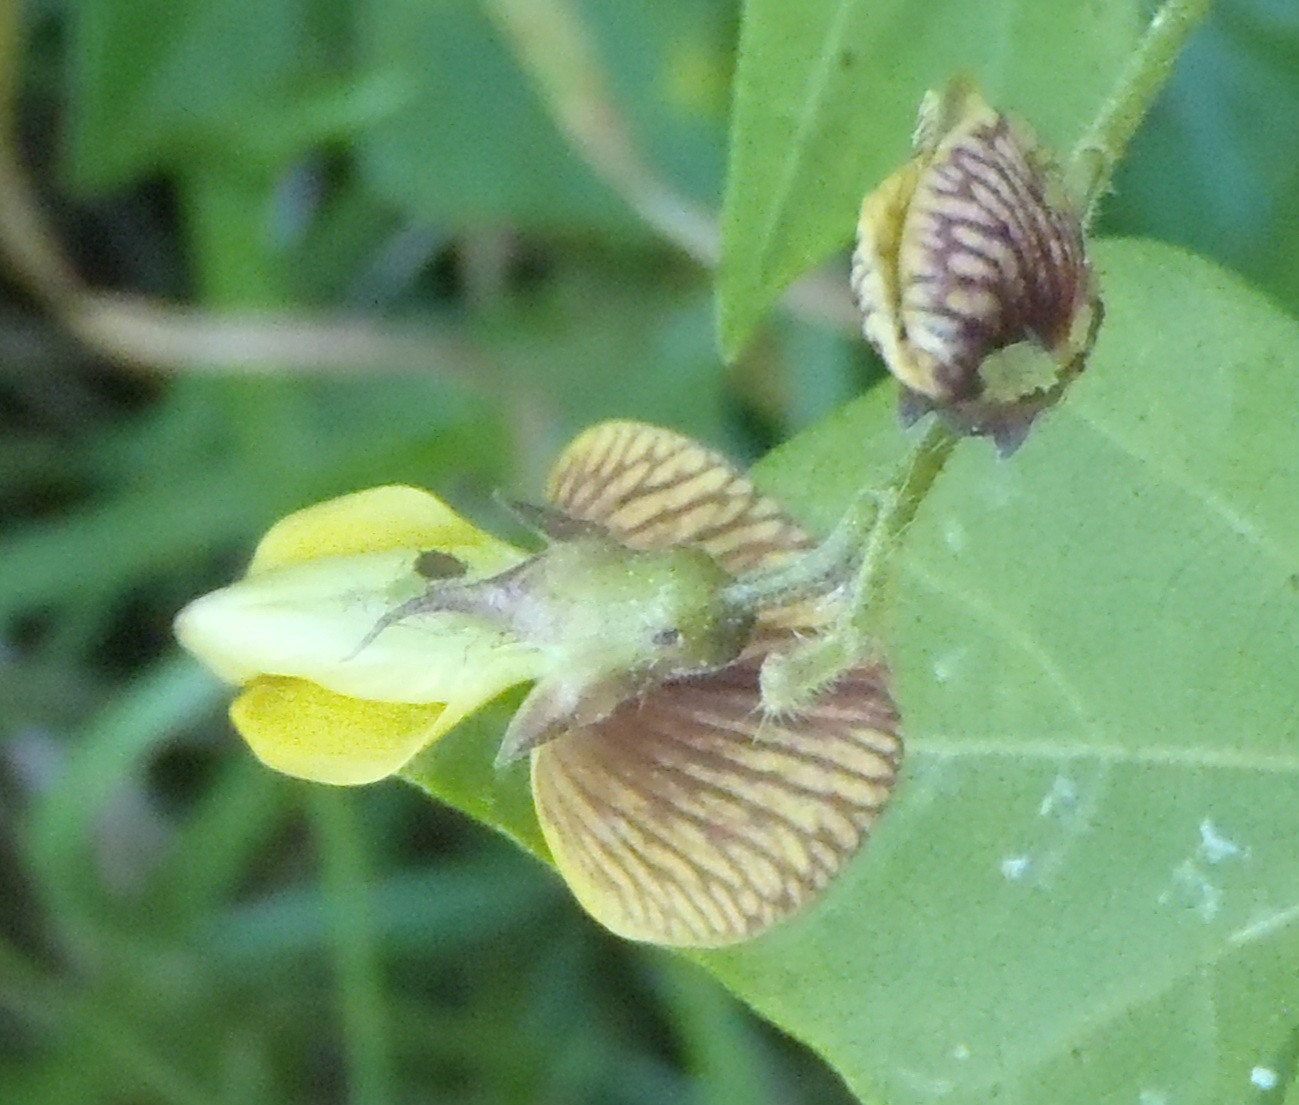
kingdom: Plantae
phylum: Tracheophyta
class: Magnoliopsida
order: Fabales
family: Fabaceae
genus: Rhynchosia
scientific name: Rhynchosia caribaea
